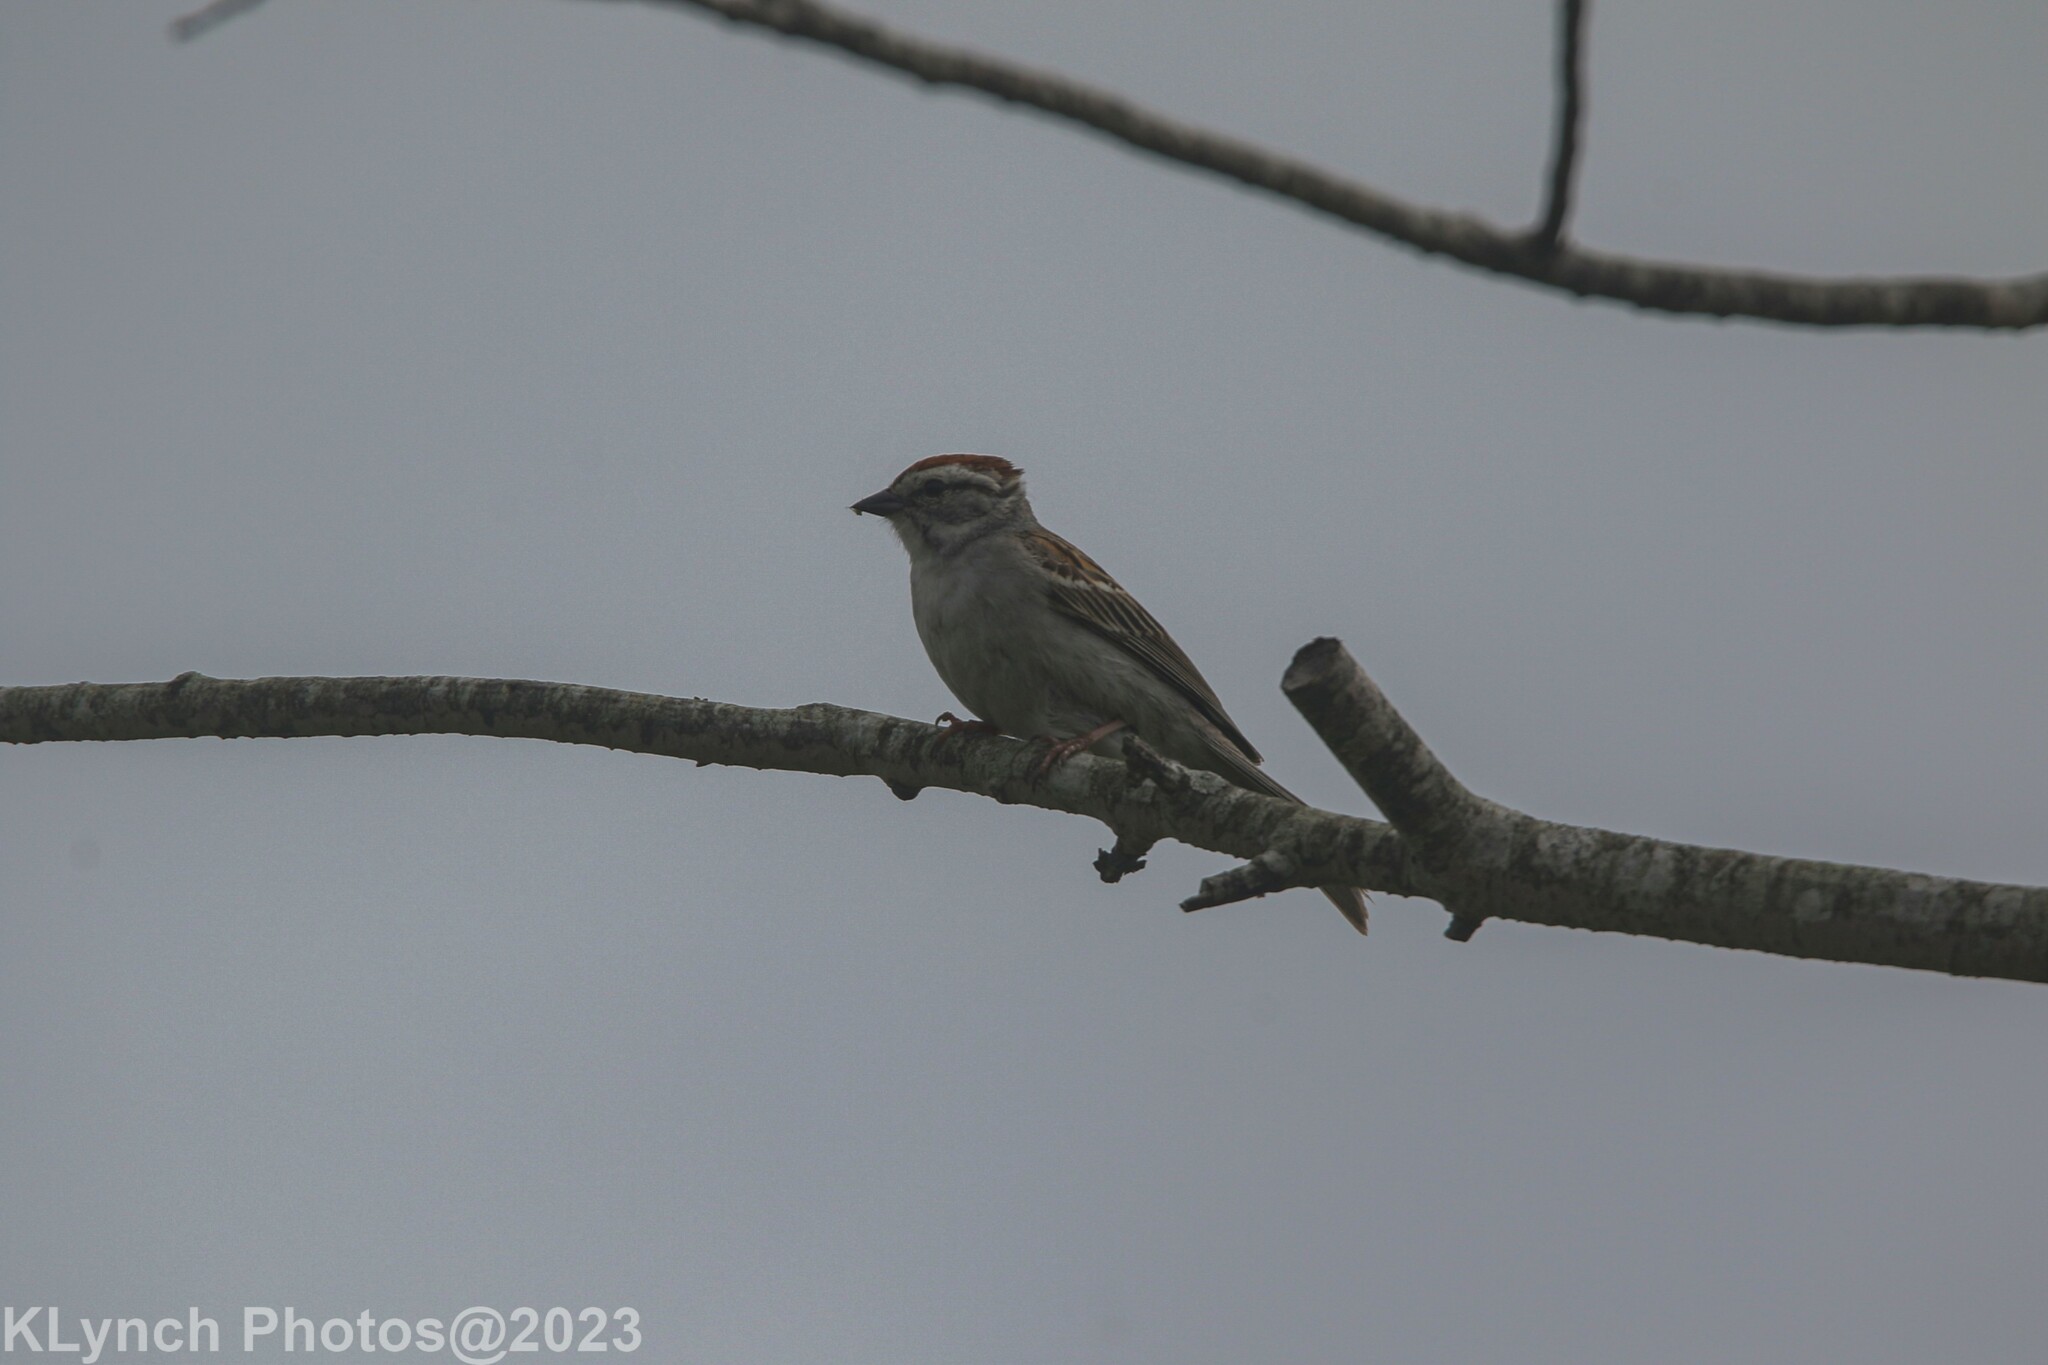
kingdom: Animalia
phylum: Chordata
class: Aves
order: Passeriformes
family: Passerellidae
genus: Spizella
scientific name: Spizella passerina
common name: Chipping sparrow
